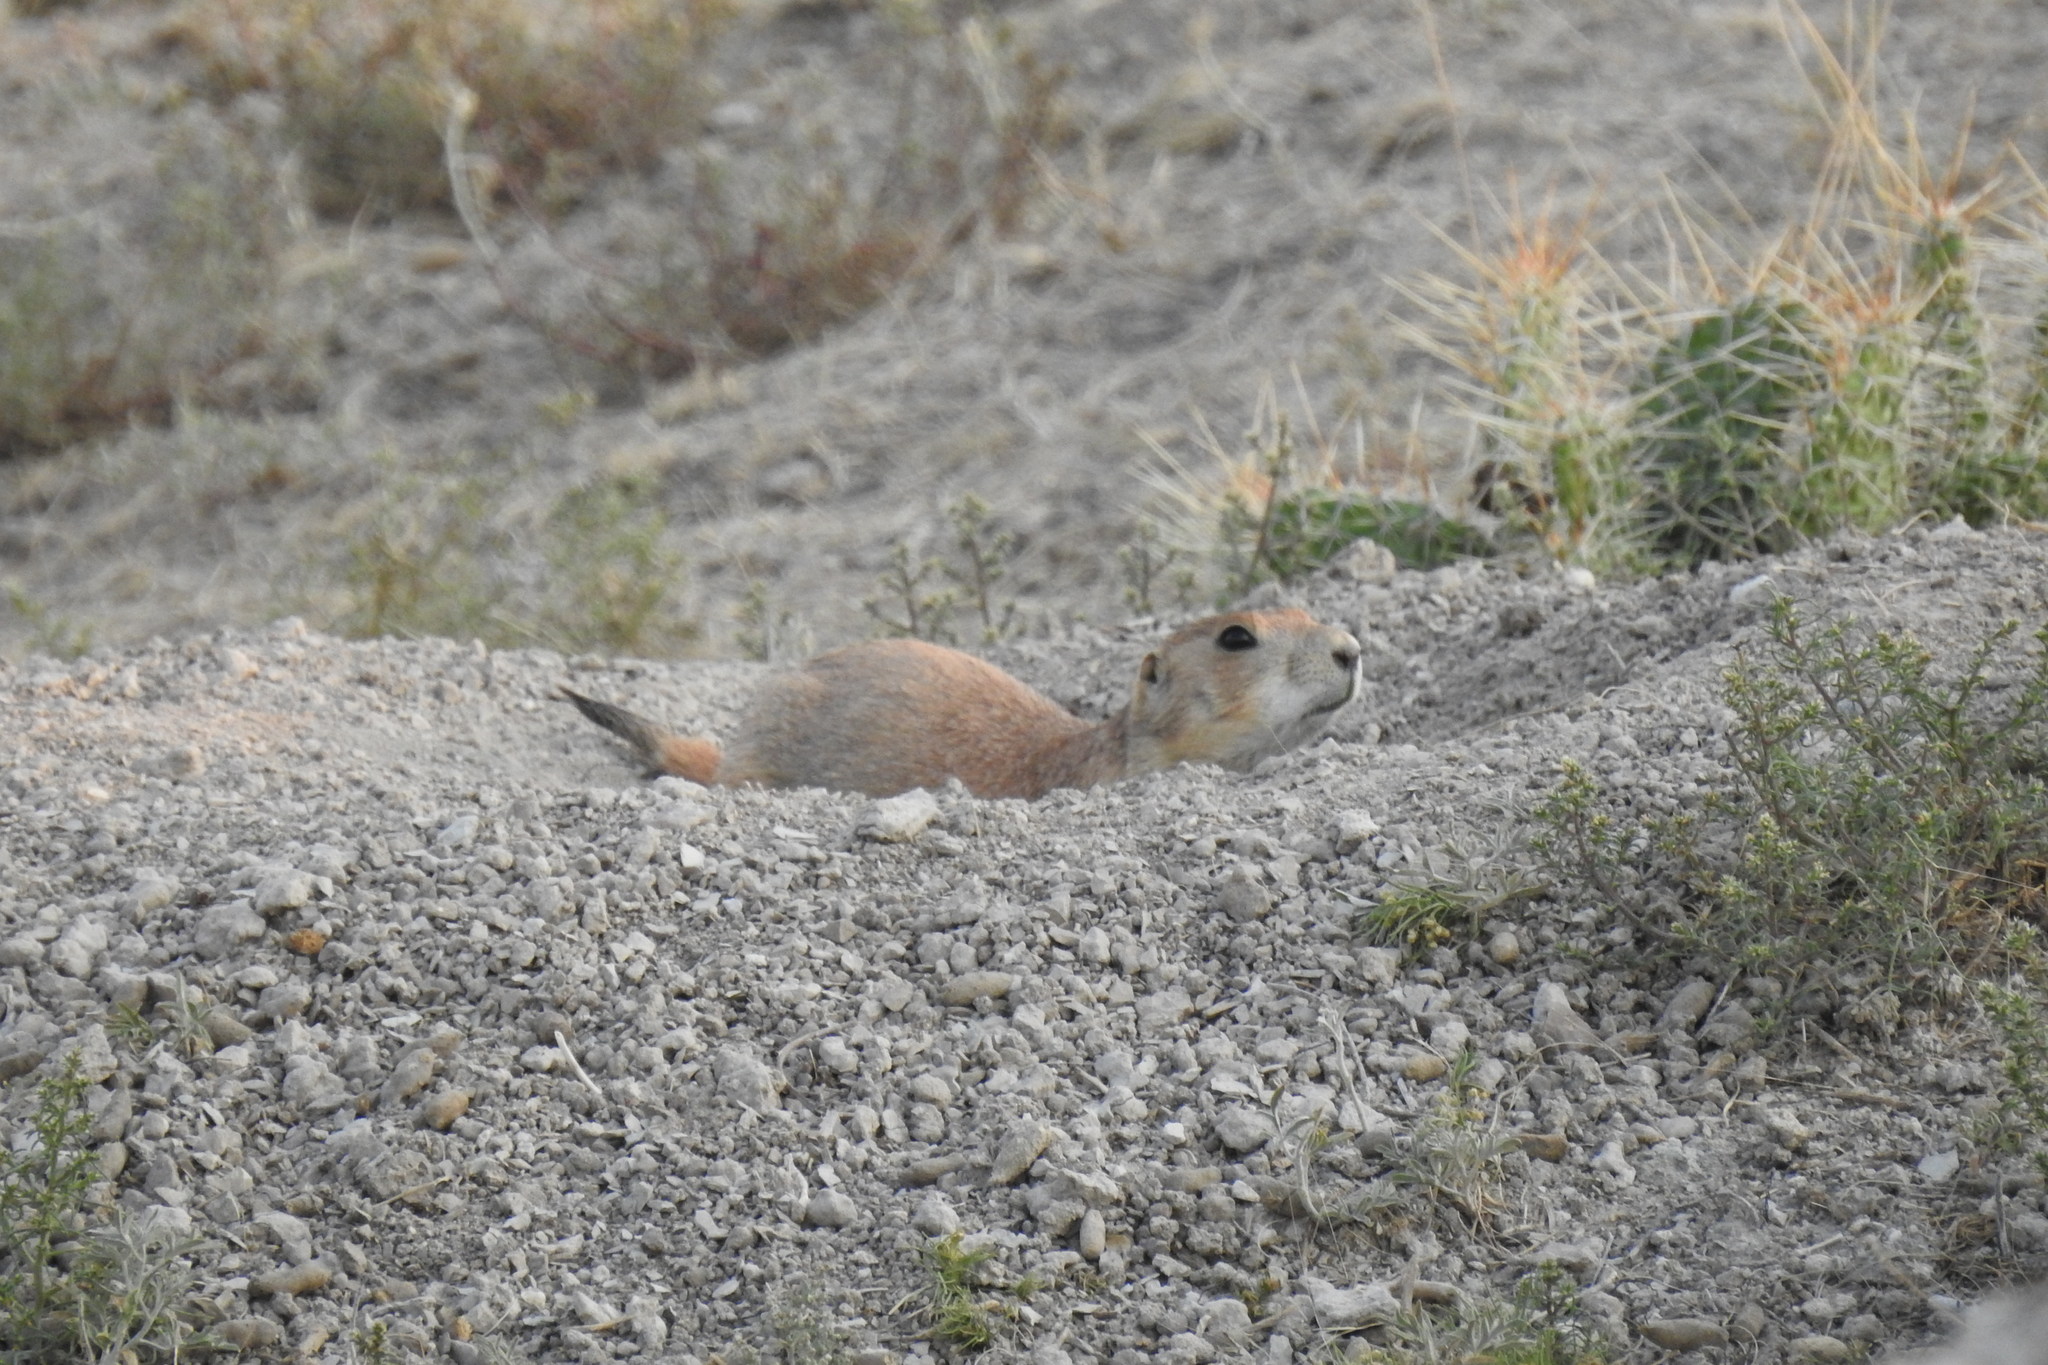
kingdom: Animalia
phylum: Chordata
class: Mammalia
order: Rodentia
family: Sciuridae
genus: Cynomys
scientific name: Cynomys ludovicianus
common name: Black-tailed prairie dog
